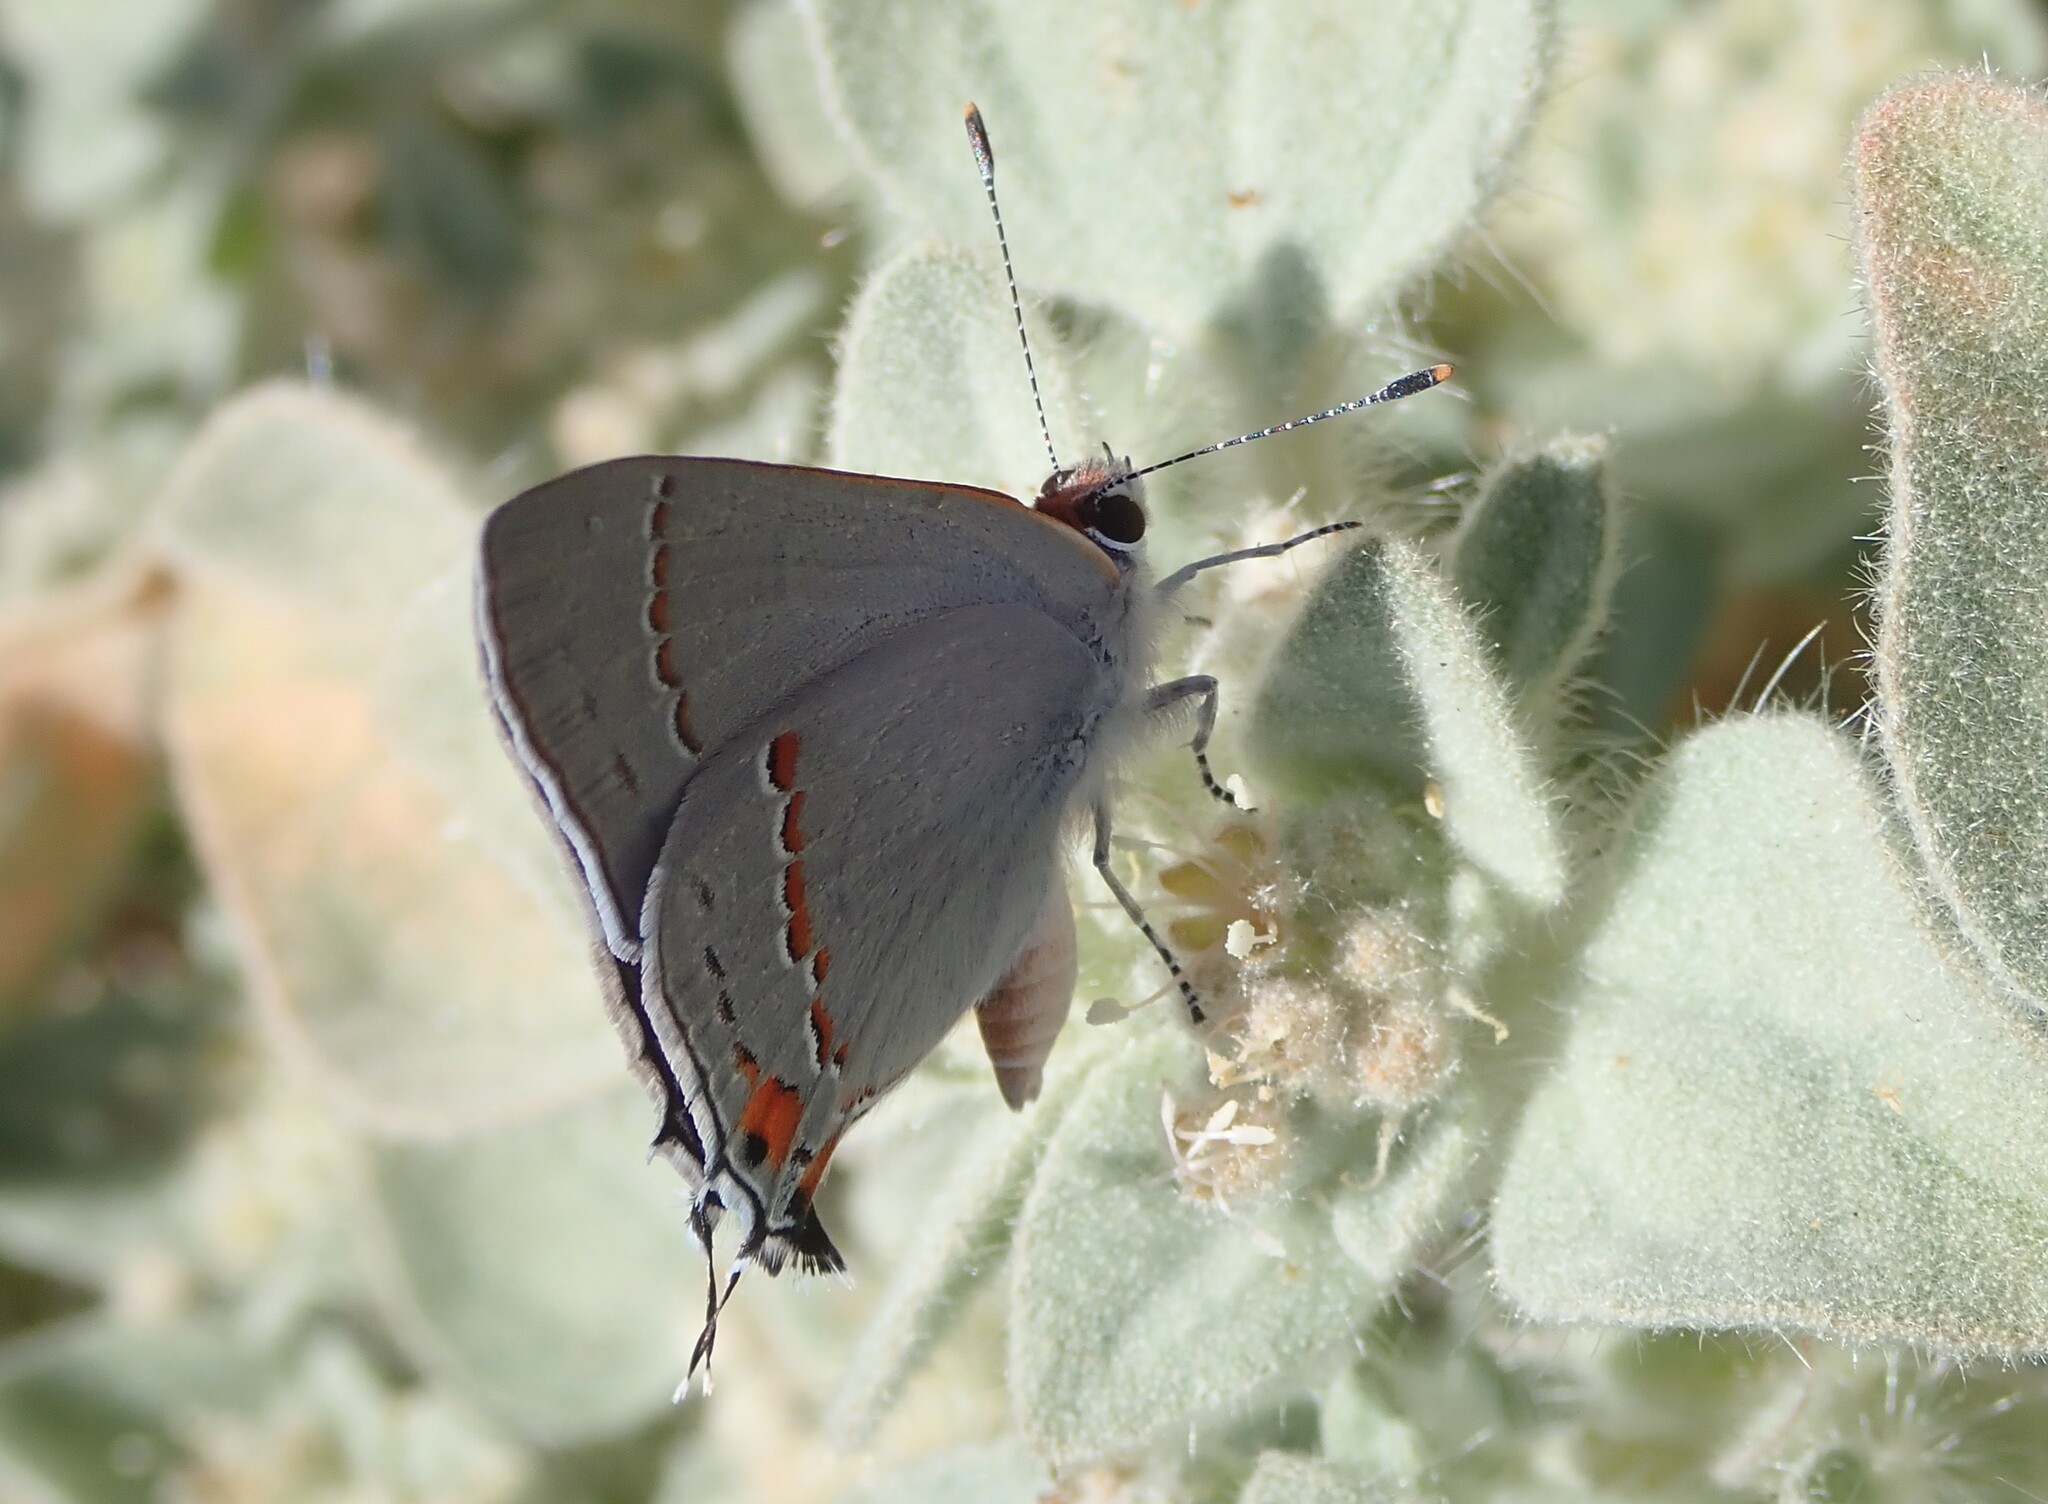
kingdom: Animalia
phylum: Arthropoda
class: Insecta
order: Lepidoptera
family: Lycaenidae
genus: Strymon
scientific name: Strymon melinus
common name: Gray hairstreak
